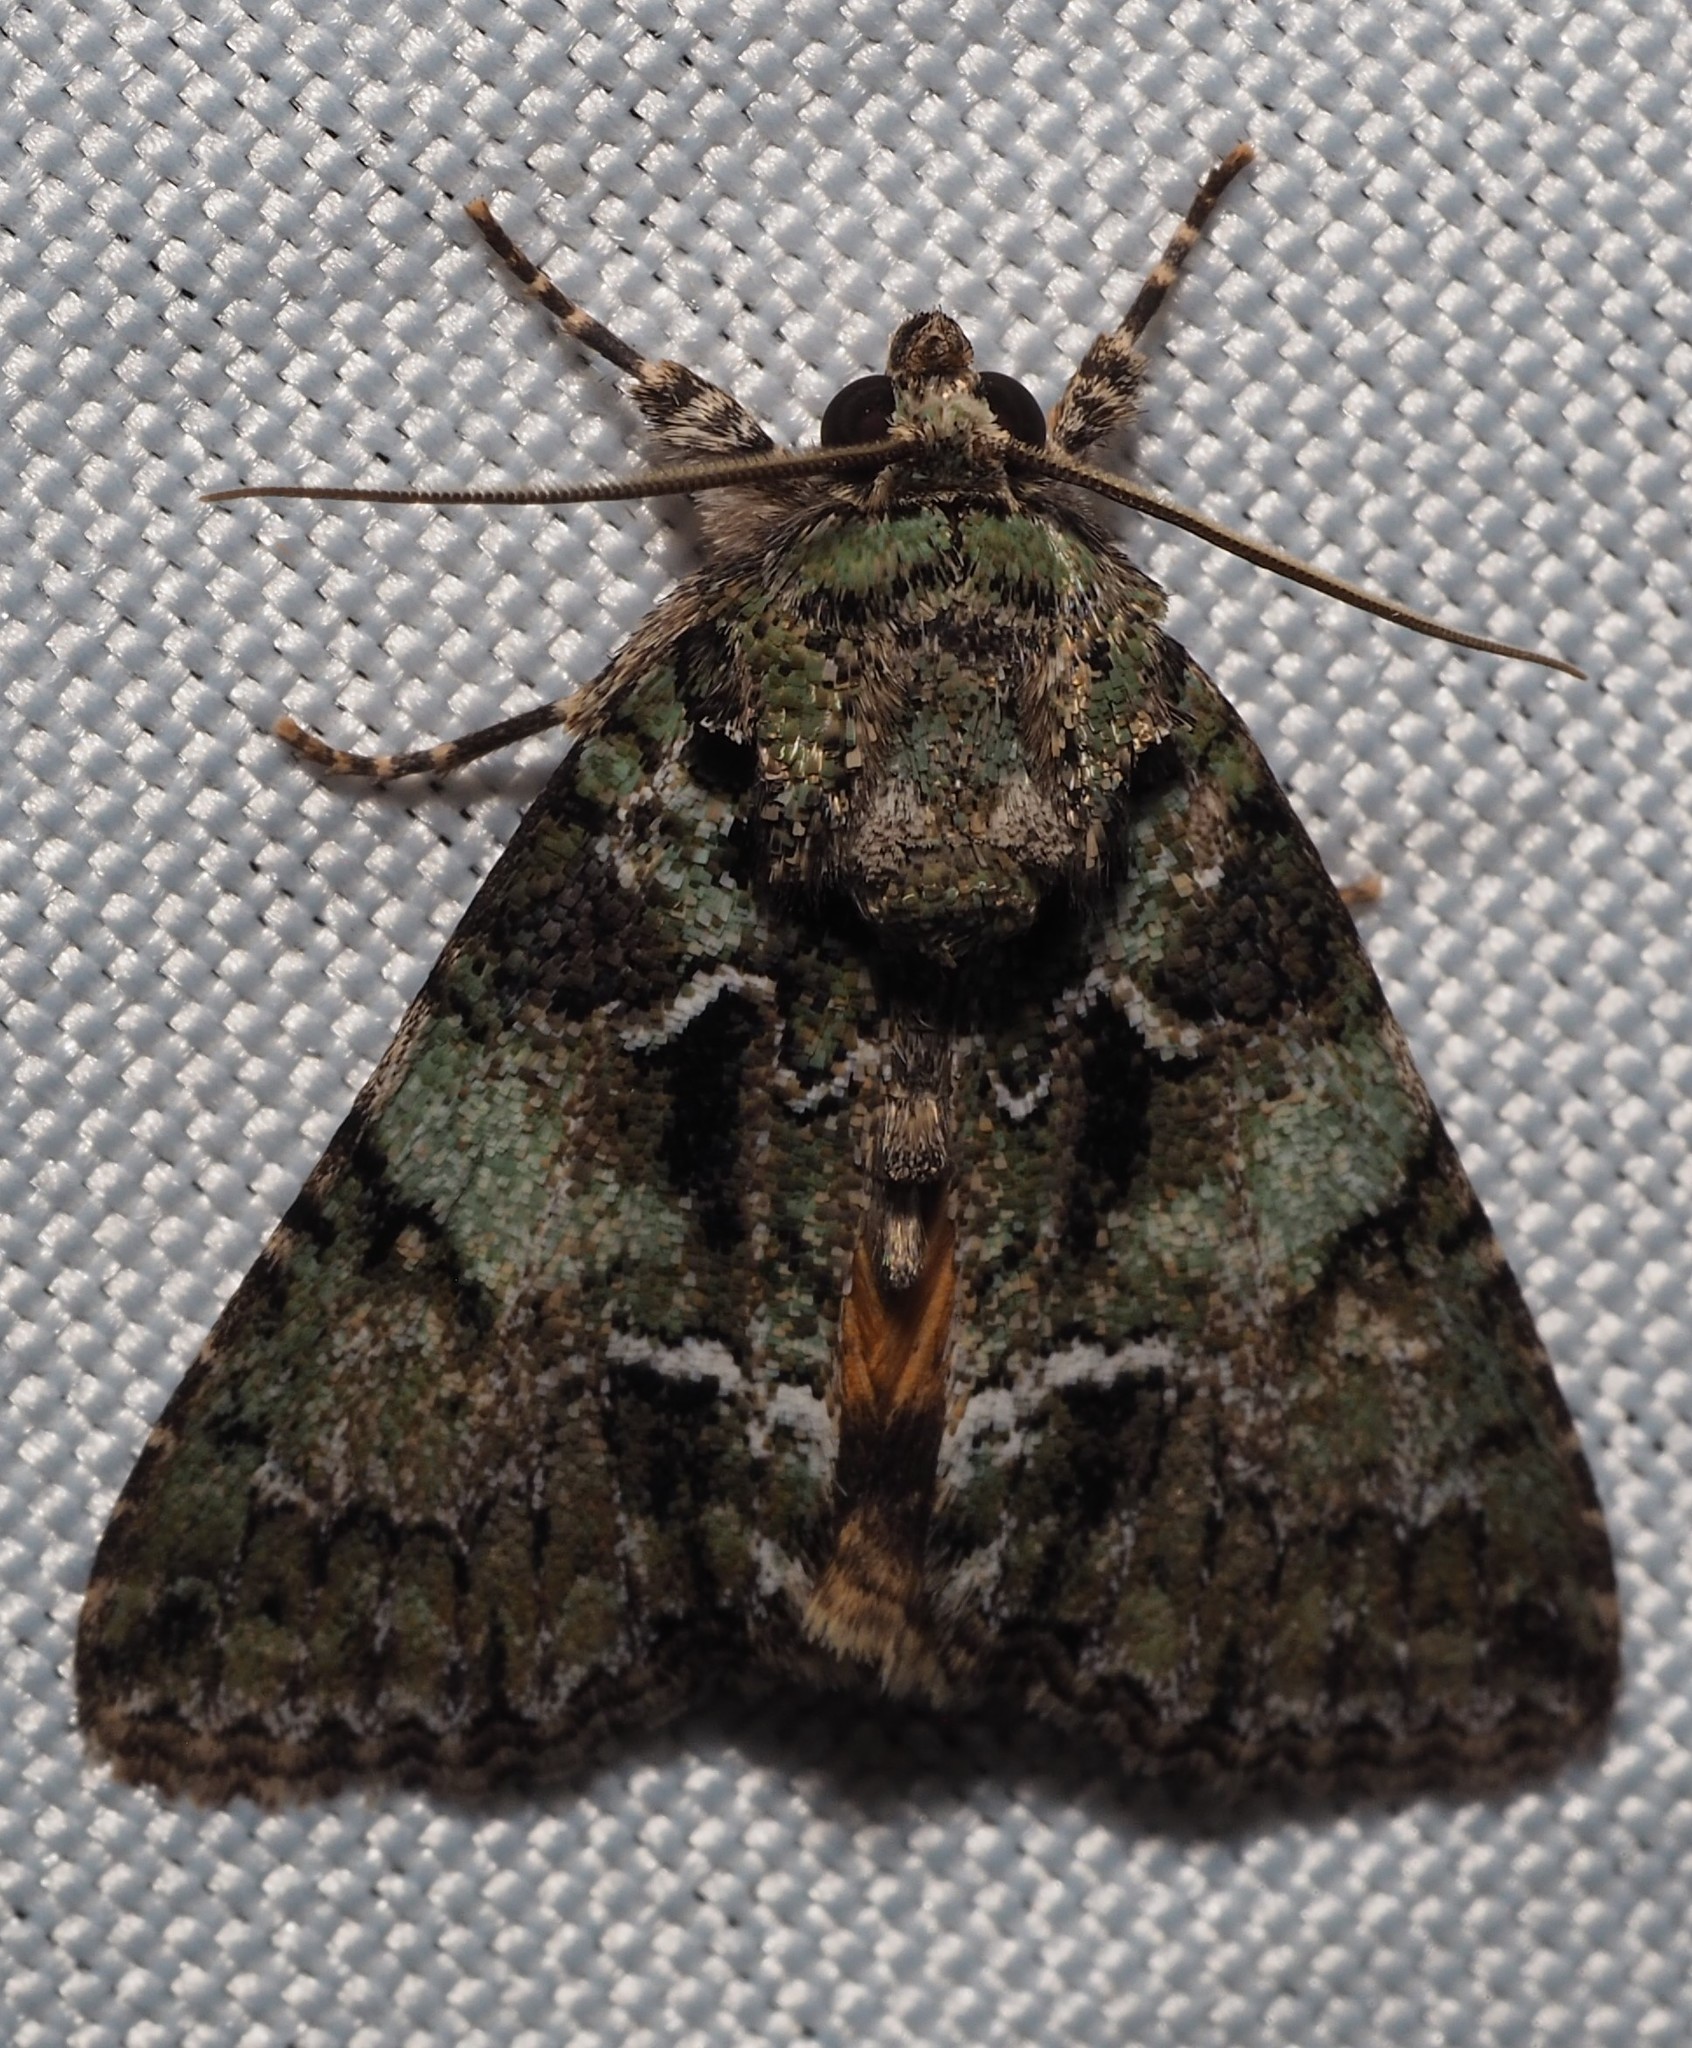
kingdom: Animalia
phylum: Arthropoda
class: Insecta
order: Lepidoptera
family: Noctuidae
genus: Polyphaenis
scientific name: Polyphaenis sericata
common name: Guernsey underwing
